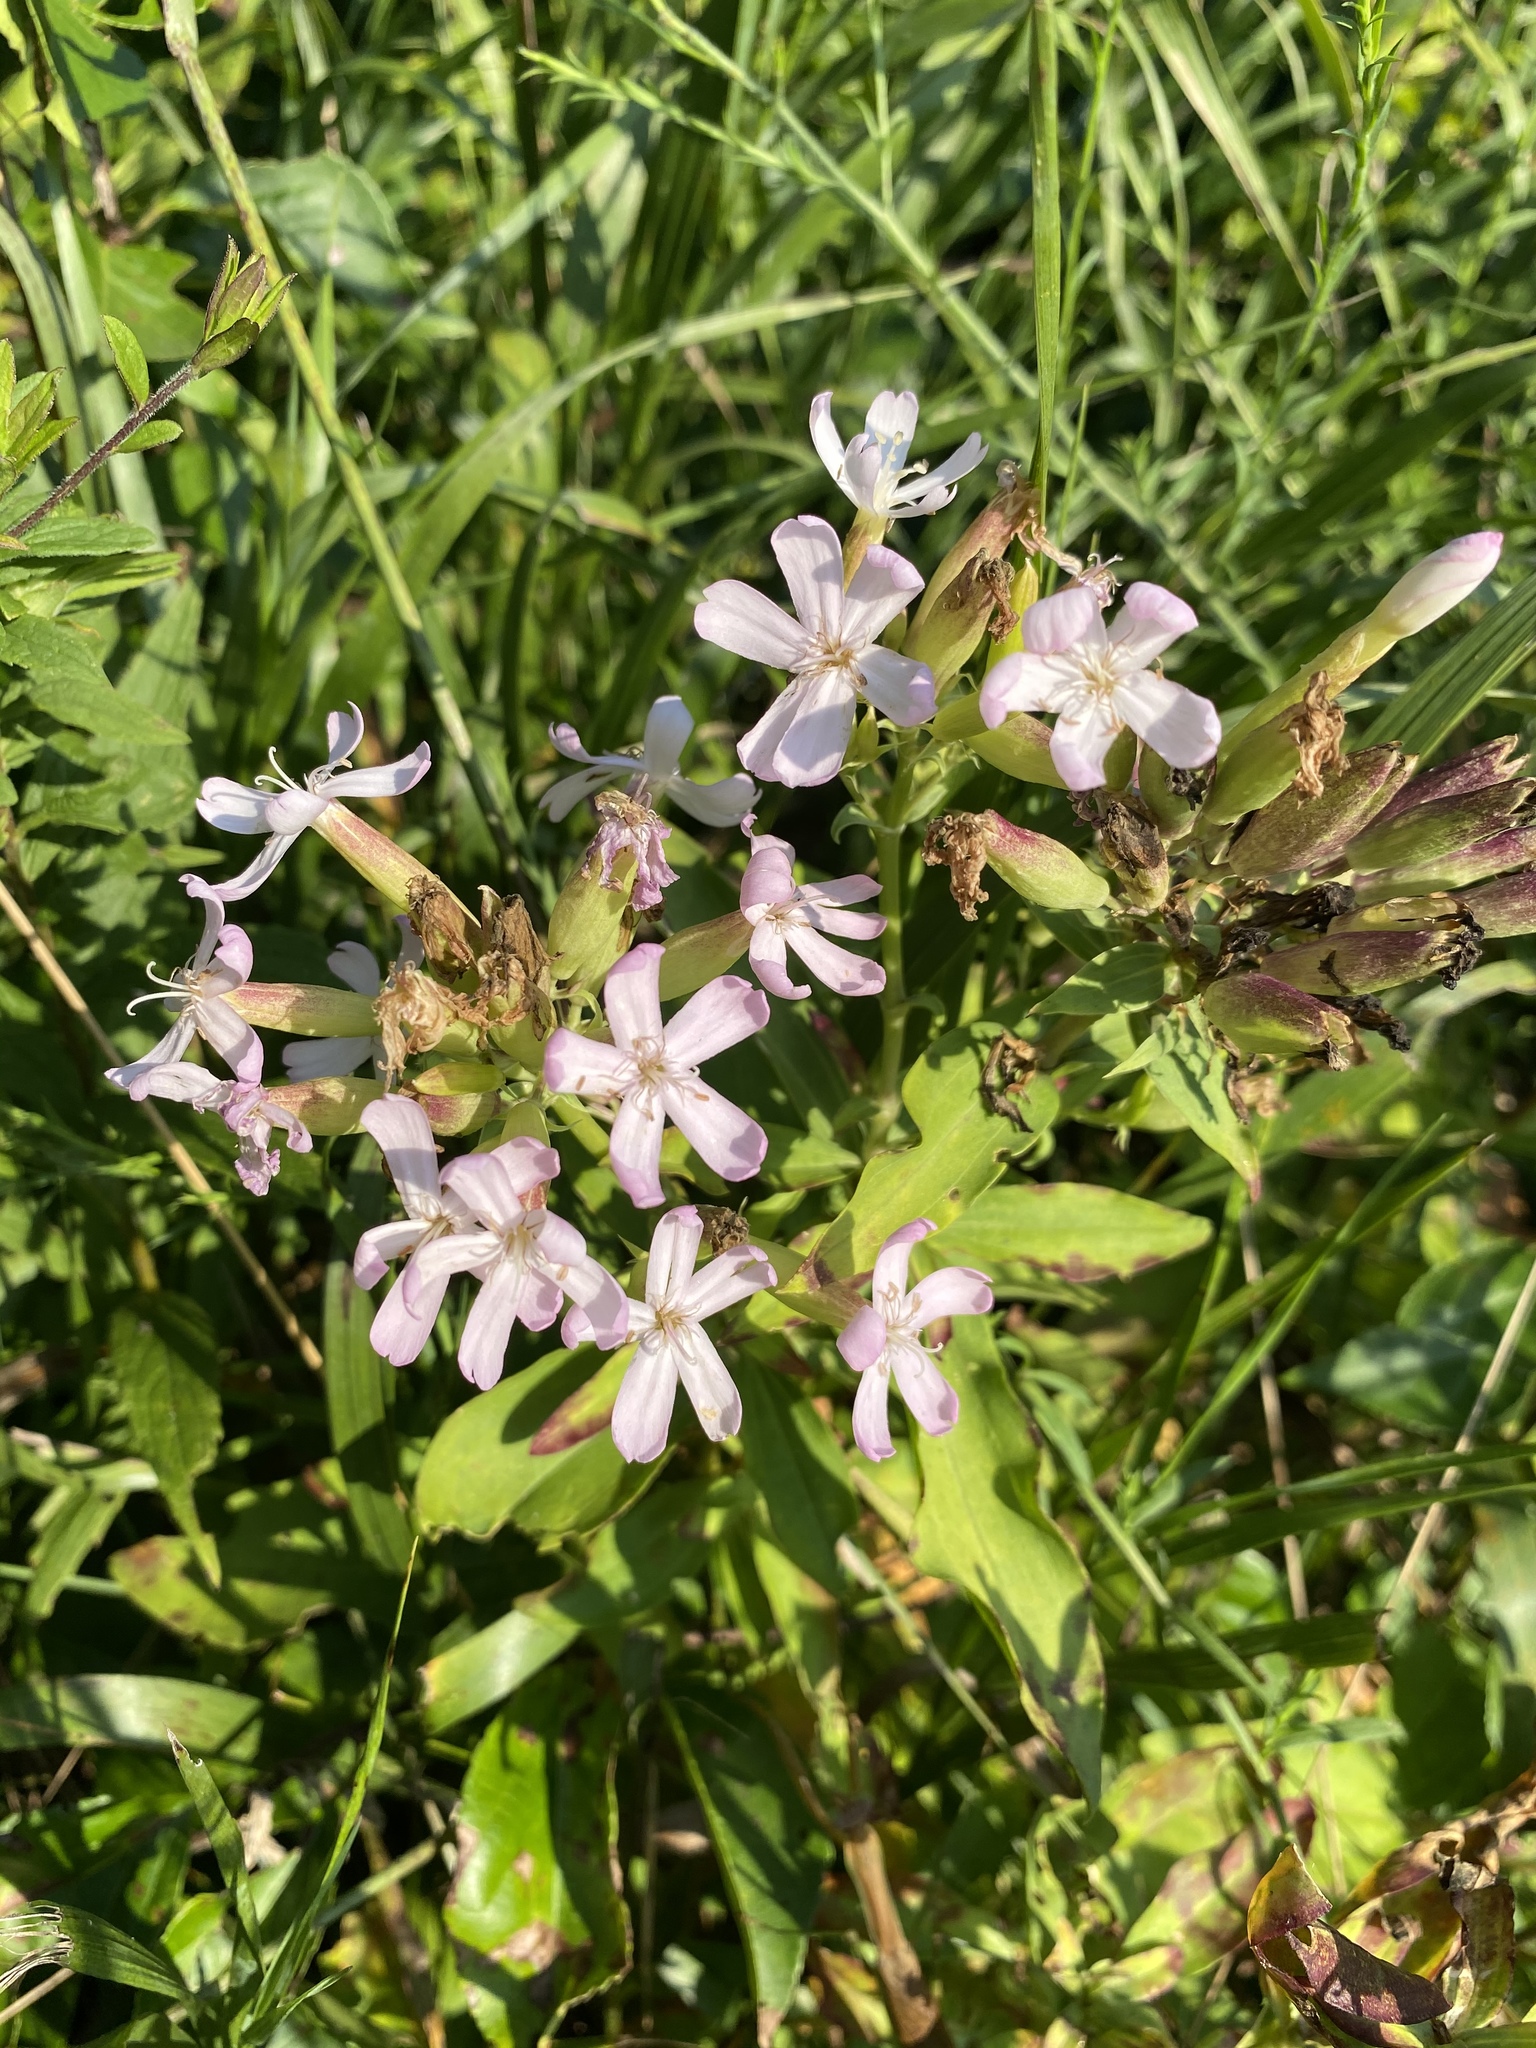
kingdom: Plantae
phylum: Tracheophyta
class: Magnoliopsida
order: Caryophyllales
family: Caryophyllaceae
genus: Saponaria
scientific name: Saponaria officinalis
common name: Soapwort
